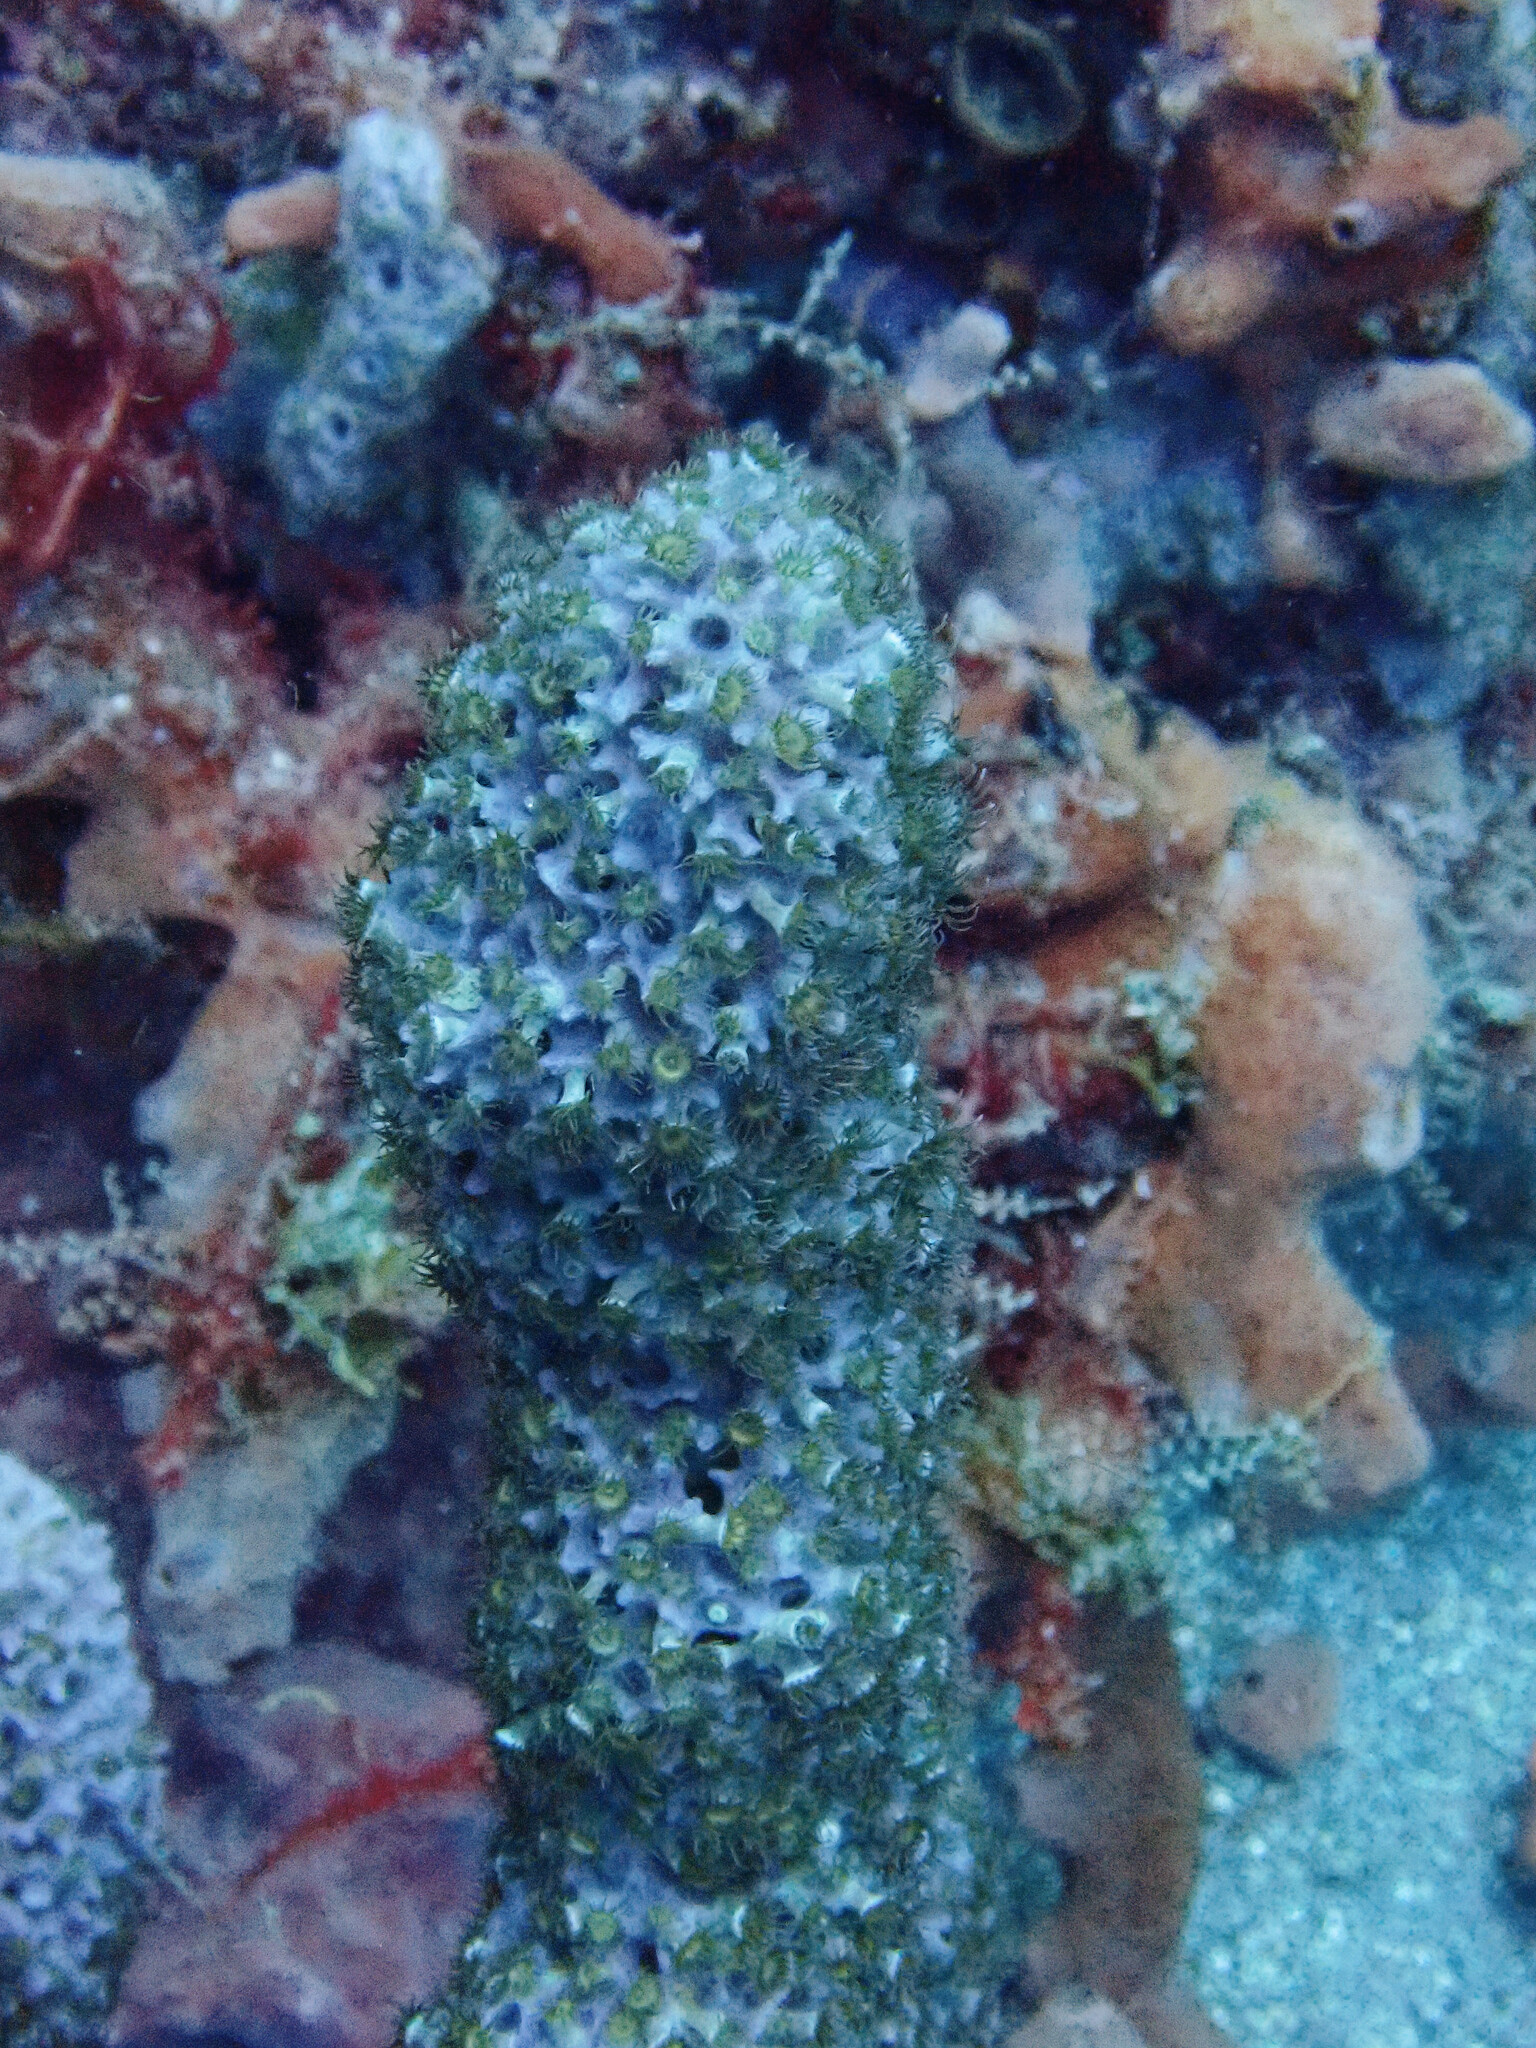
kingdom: Animalia
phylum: Cnidaria
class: Anthozoa
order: Zoantharia
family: Parazoanthidae
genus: Umimayanthus
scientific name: Umimayanthus parasiticus
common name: Sponge zoanthid
